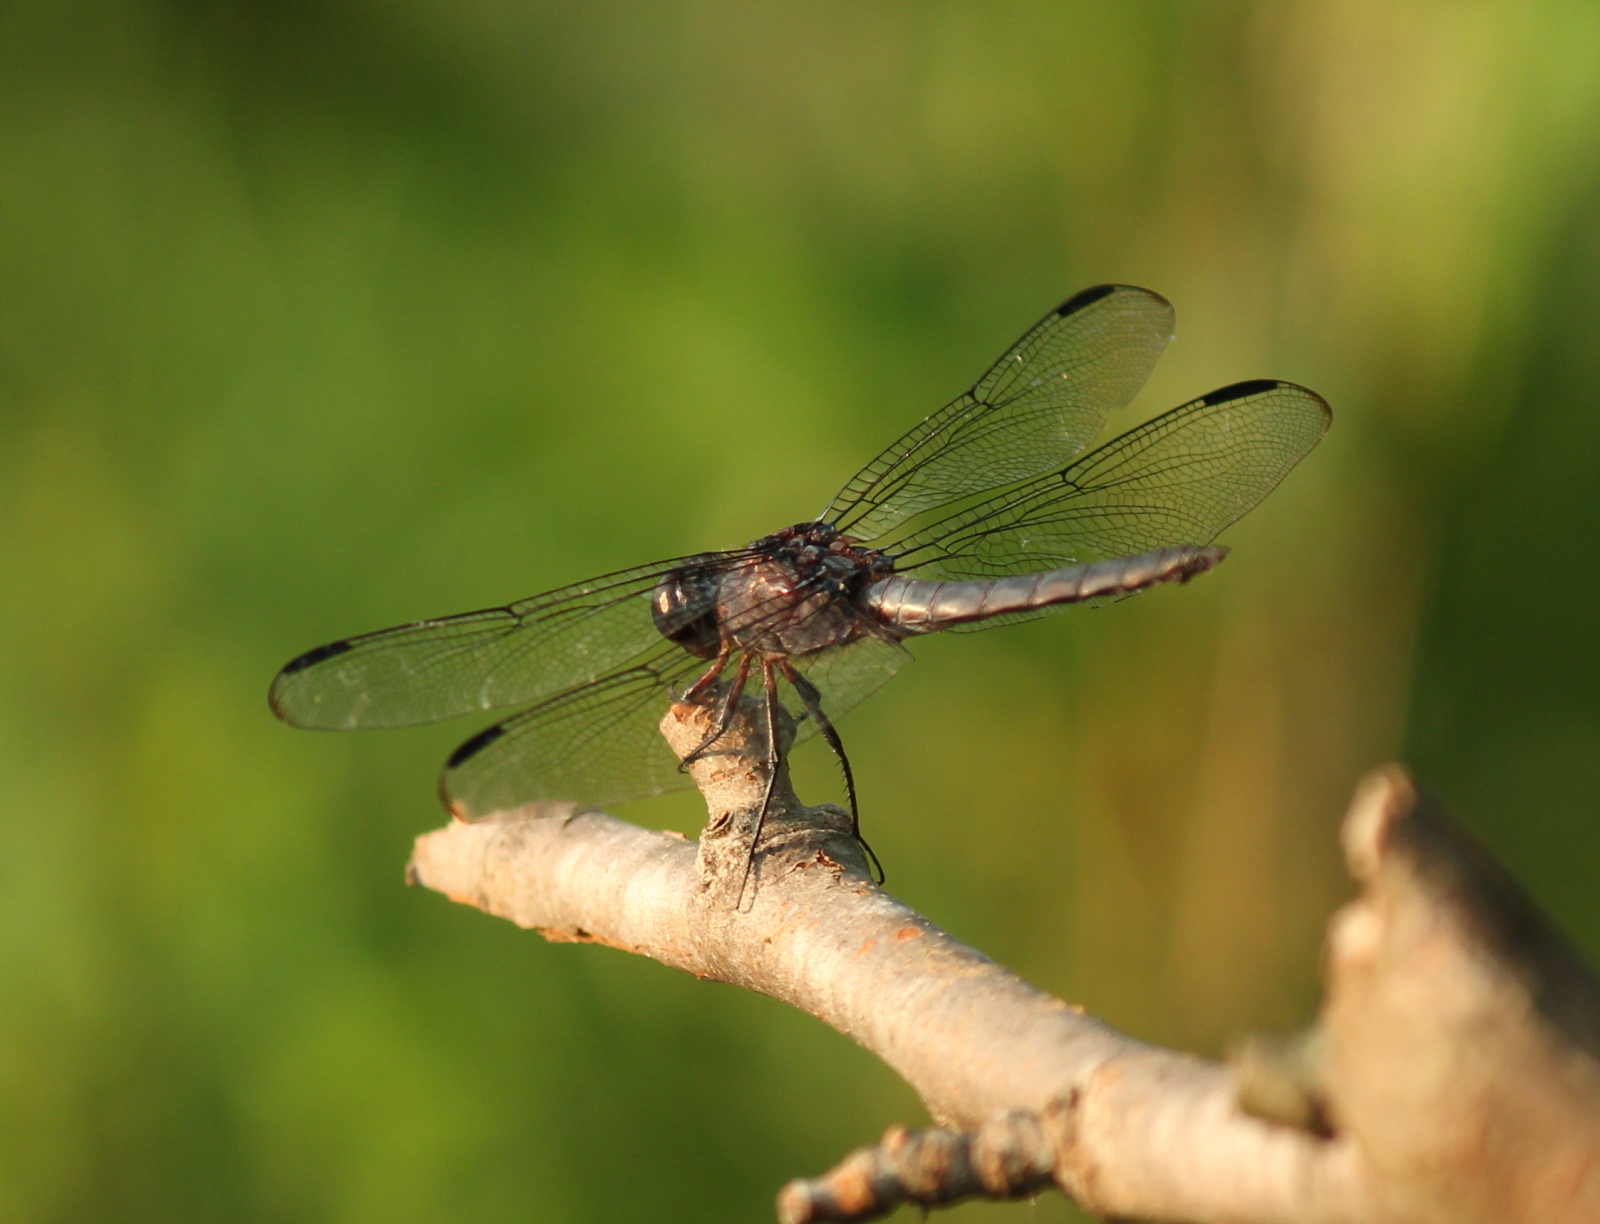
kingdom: Animalia
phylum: Arthropoda
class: Insecta
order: Odonata
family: Libellulidae
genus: Libellula
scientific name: Libellula incesta
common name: Slaty skimmer
